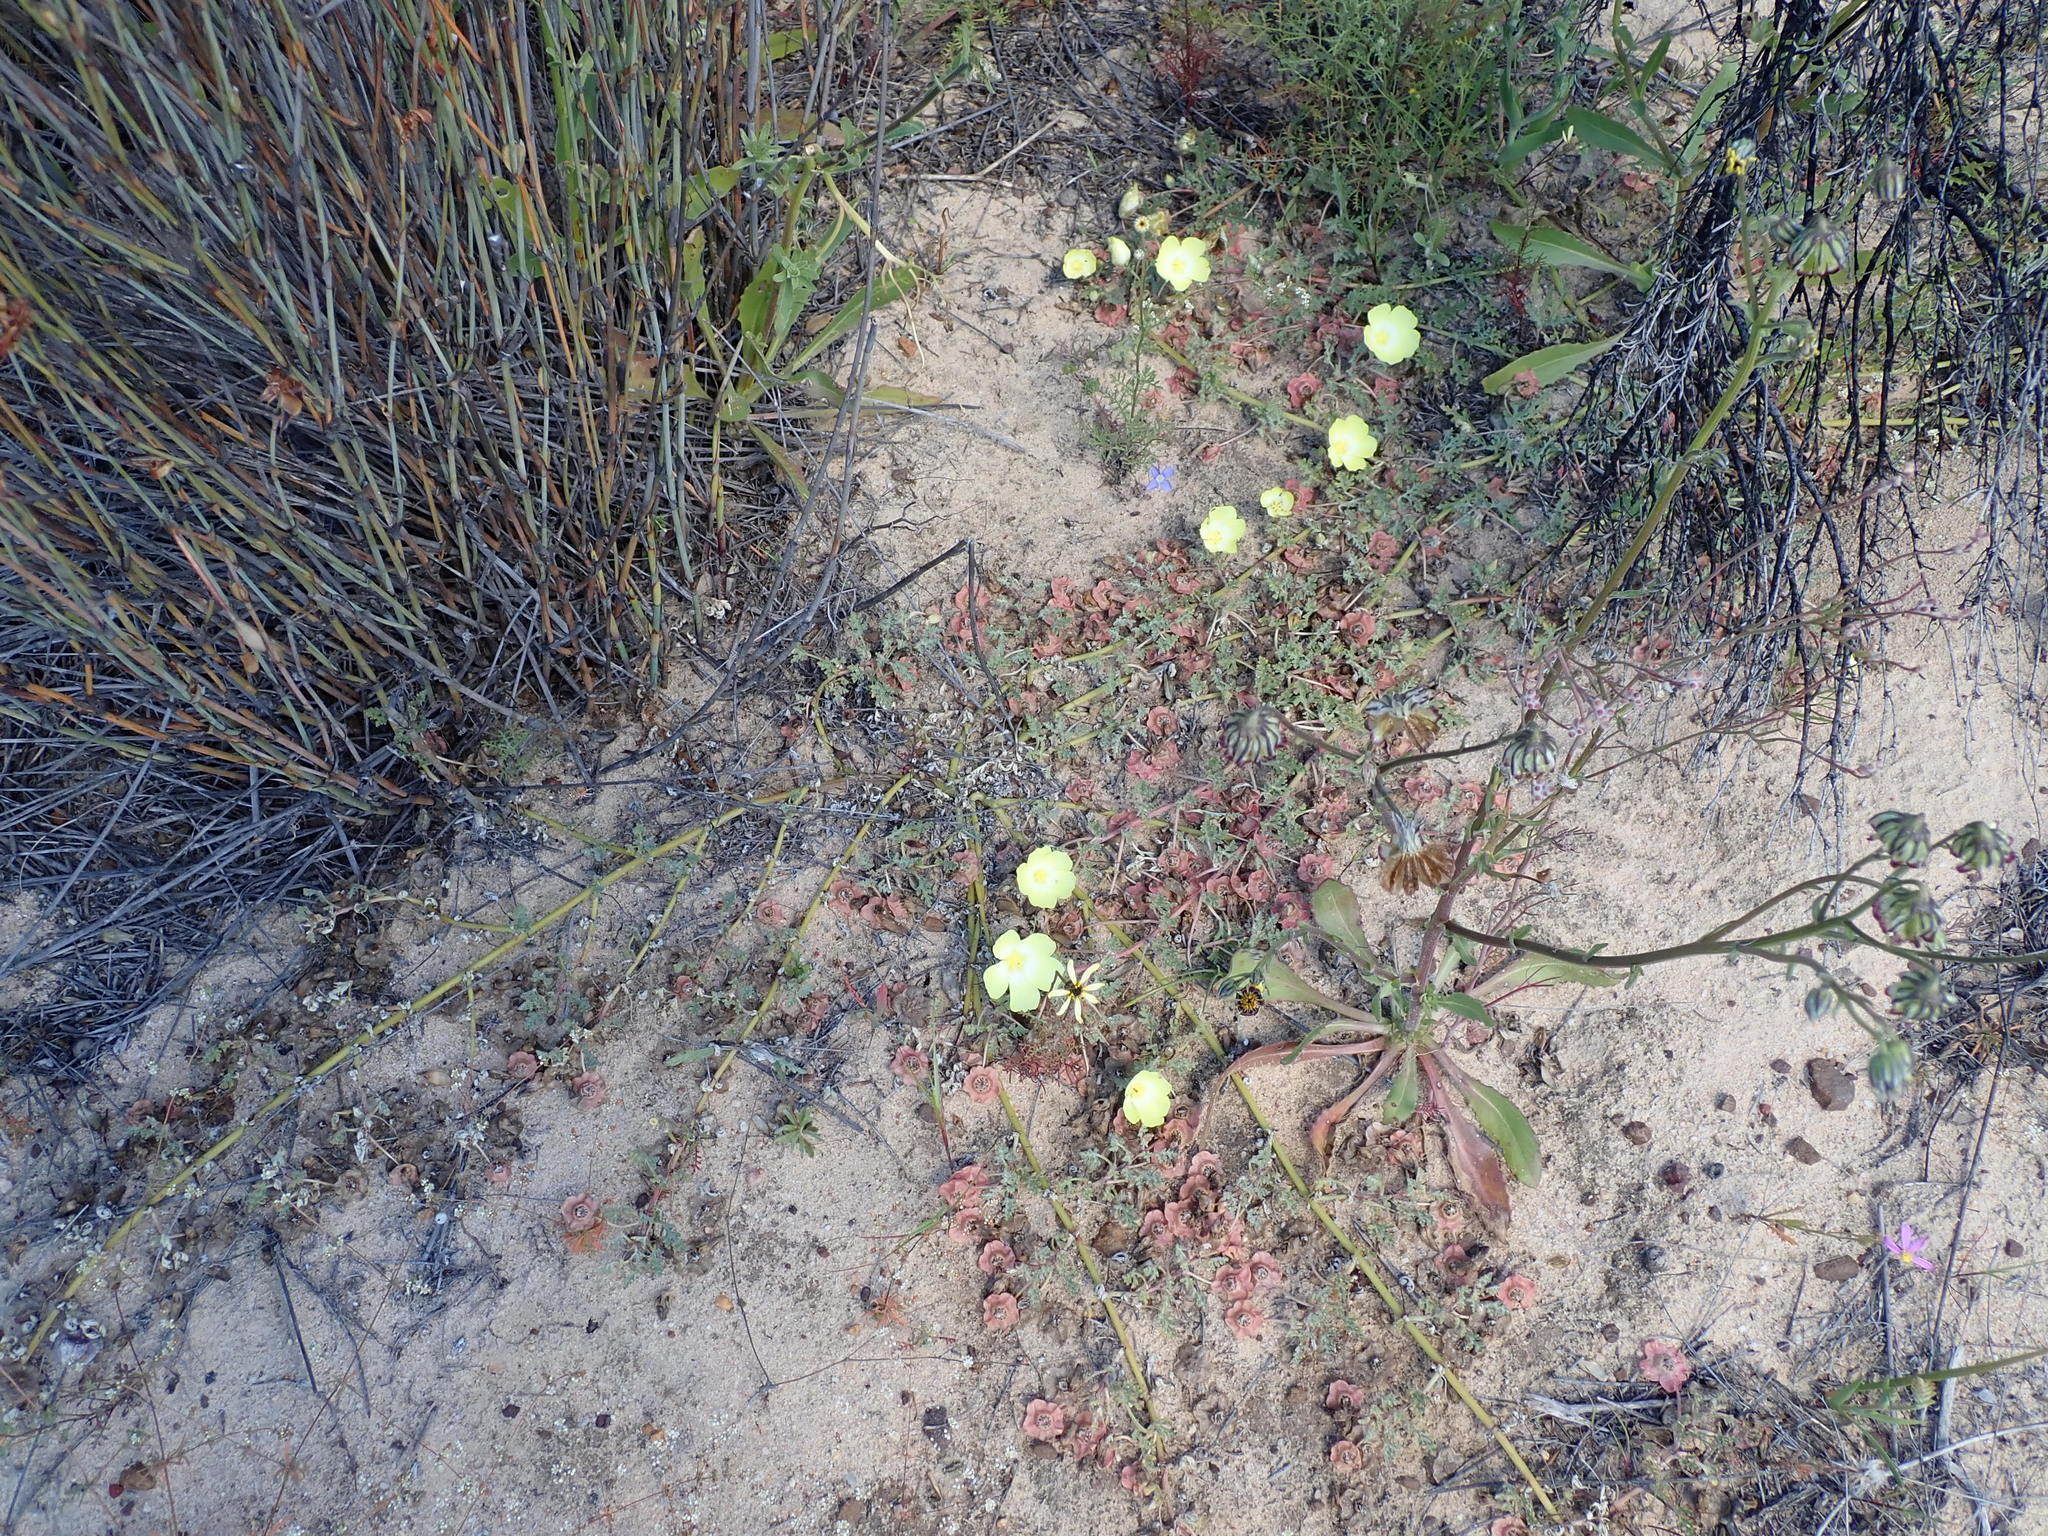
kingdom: Plantae
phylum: Tracheophyta
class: Magnoliopsida
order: Malvales
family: Neuradaceae
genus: Grielum
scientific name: Grielum humifusum
